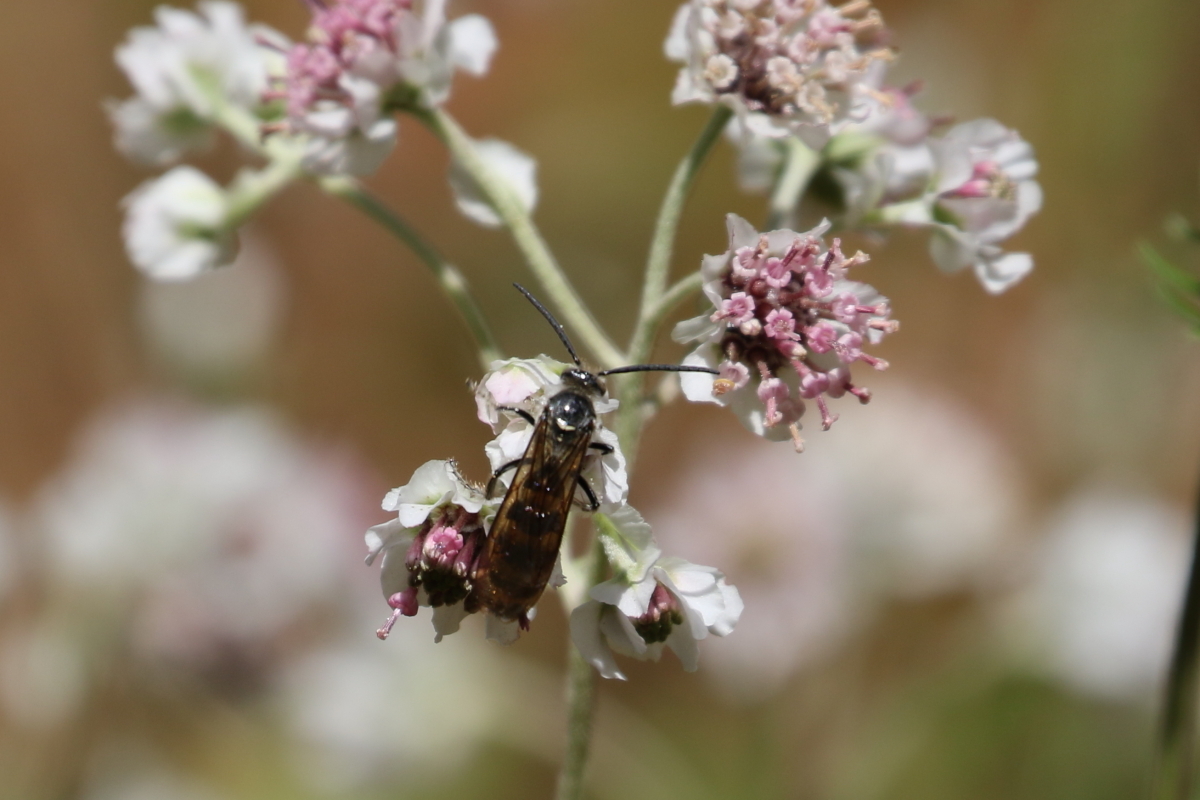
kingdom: Animalia
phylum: Arthropoda
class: Insecta
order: Hymenoptera
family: Scoliidae
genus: Dielis
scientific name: Dielis
